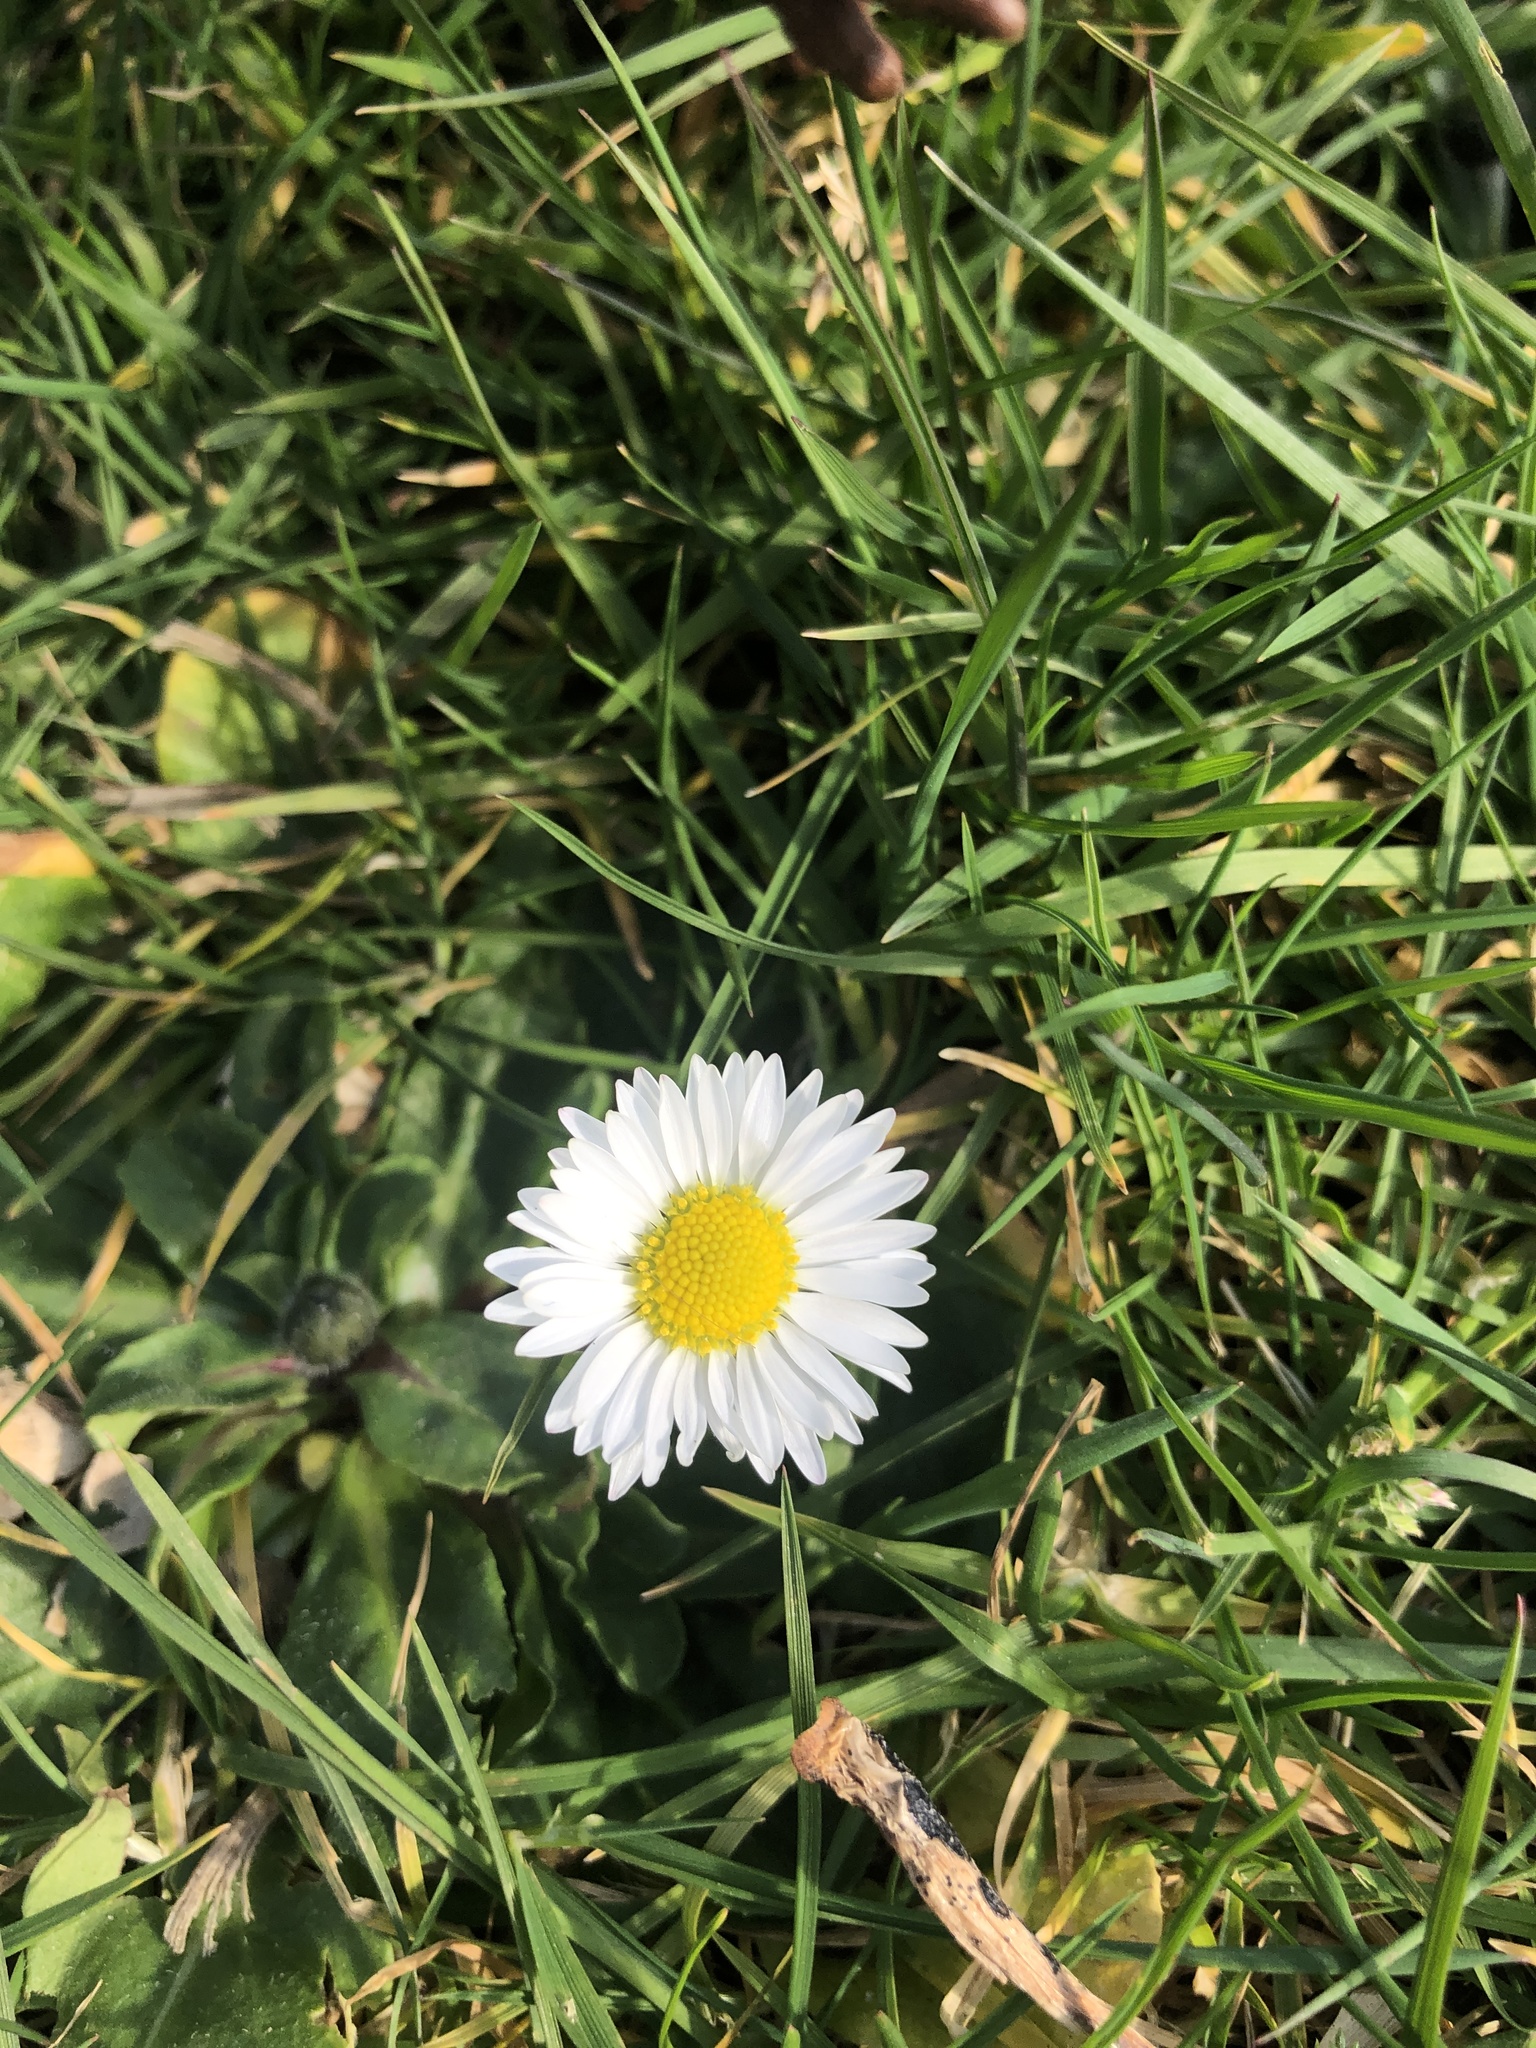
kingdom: Plantae
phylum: Tracheophyta
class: Magnoliopsida
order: Asterales
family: Asteraceae
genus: Bellis
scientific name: Bellis perennis
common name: Lawndaisy
